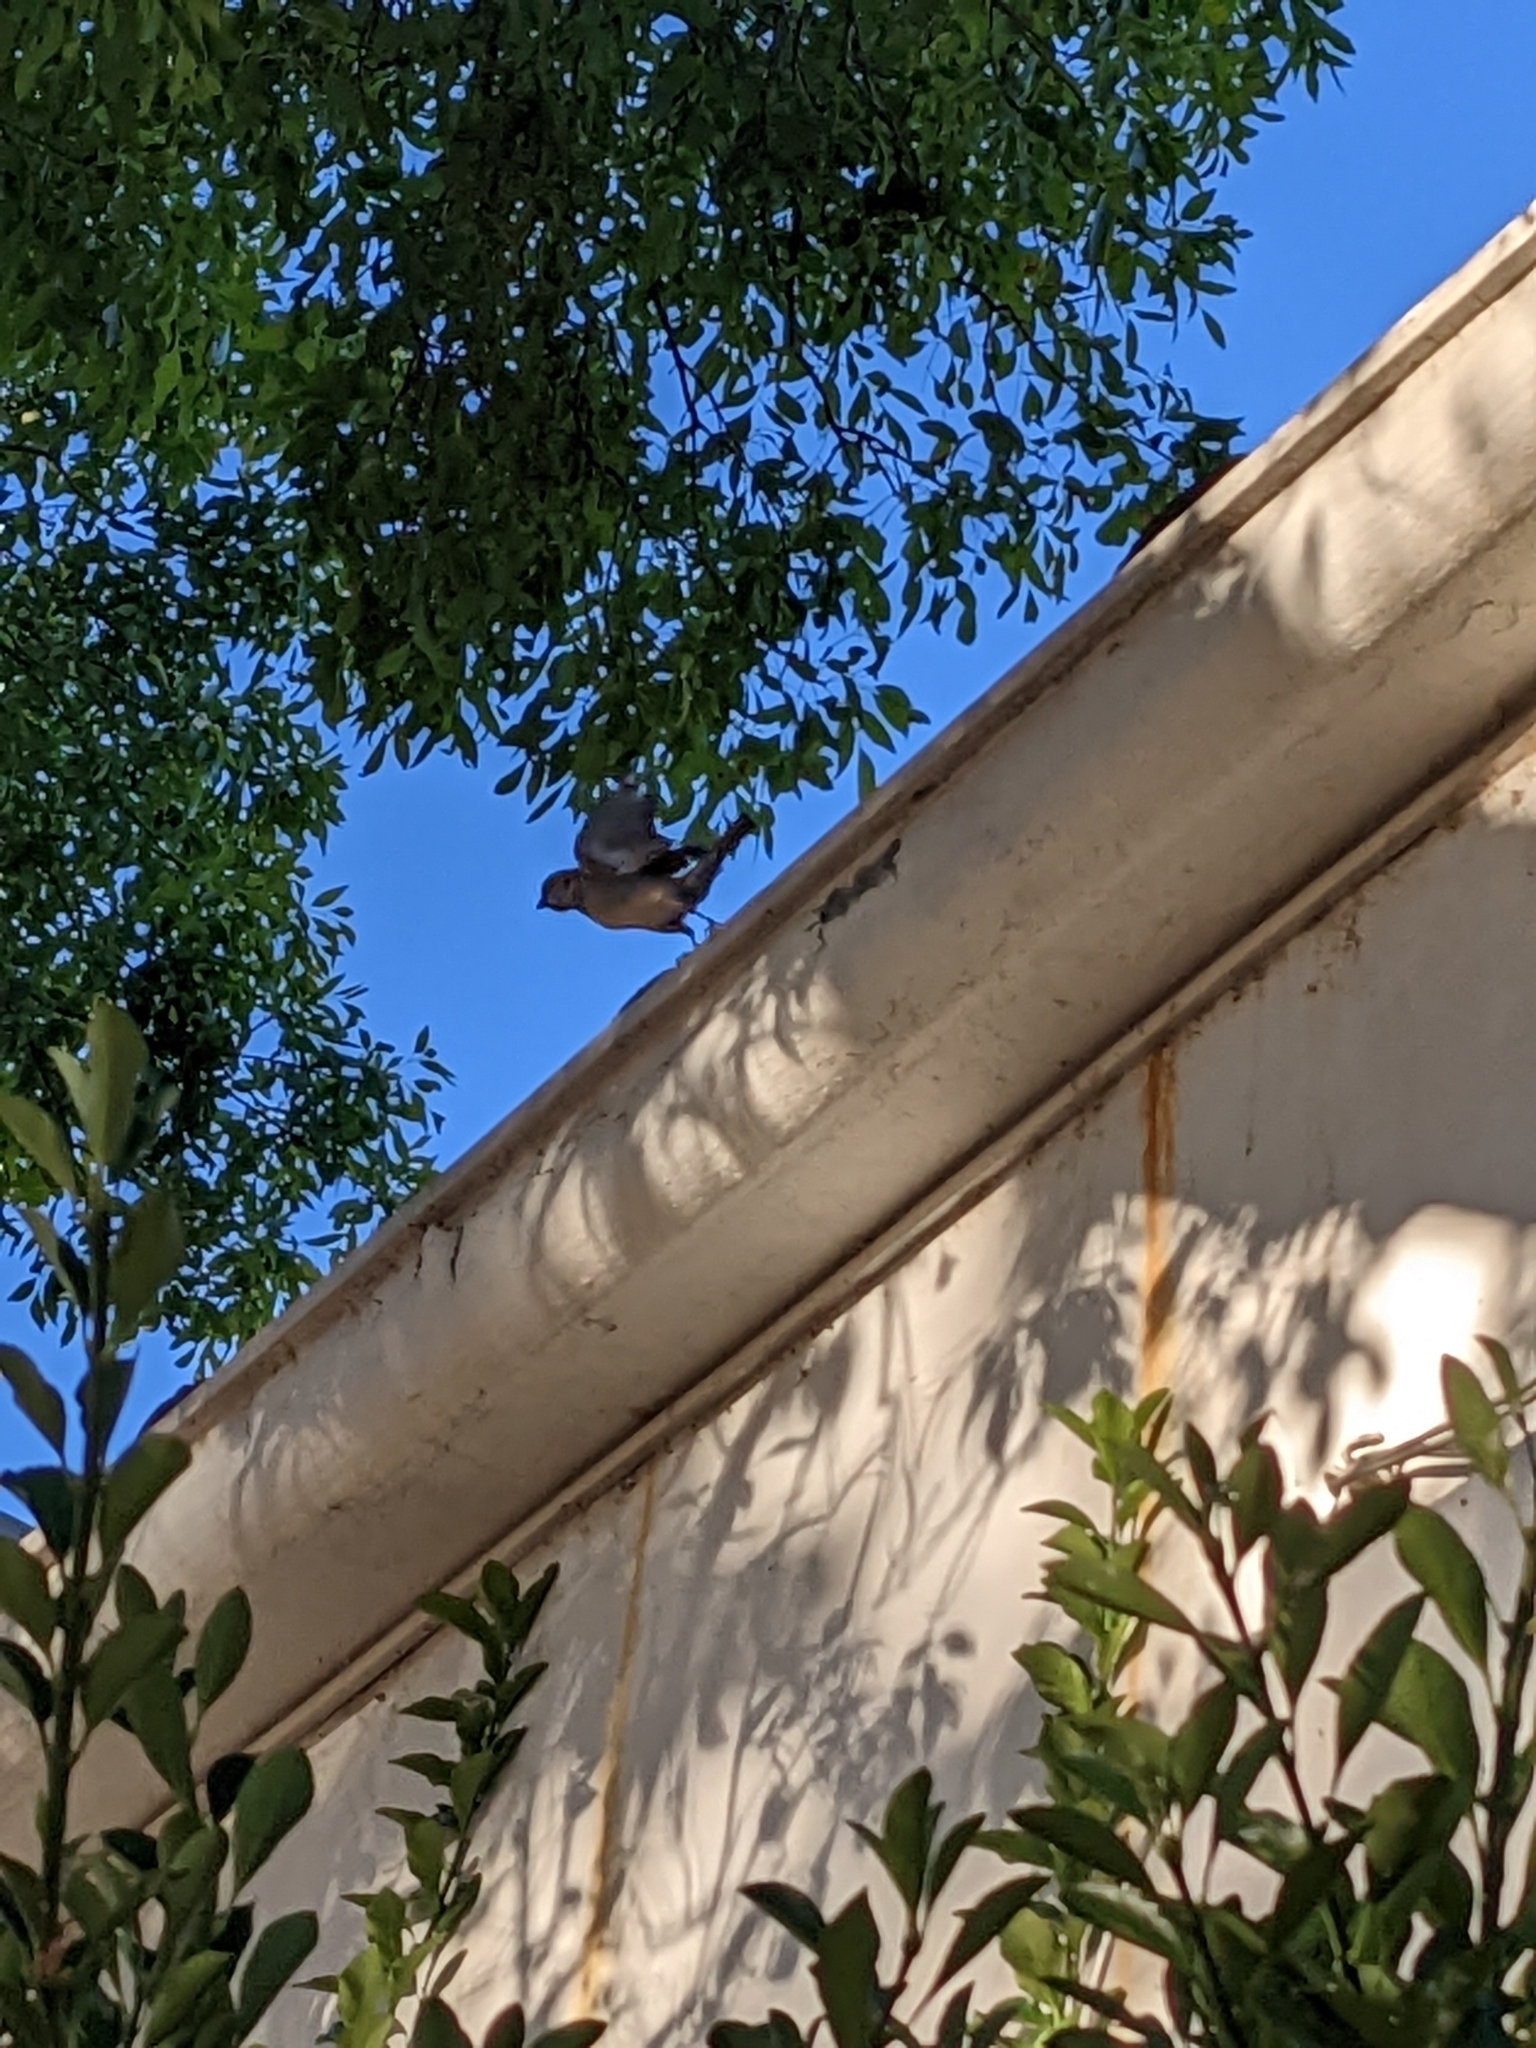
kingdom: Animalia
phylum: Chordata
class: Aves
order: Passeriformes
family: Passeridae
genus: Passer
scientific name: Passer domesticus
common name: House sparrow
